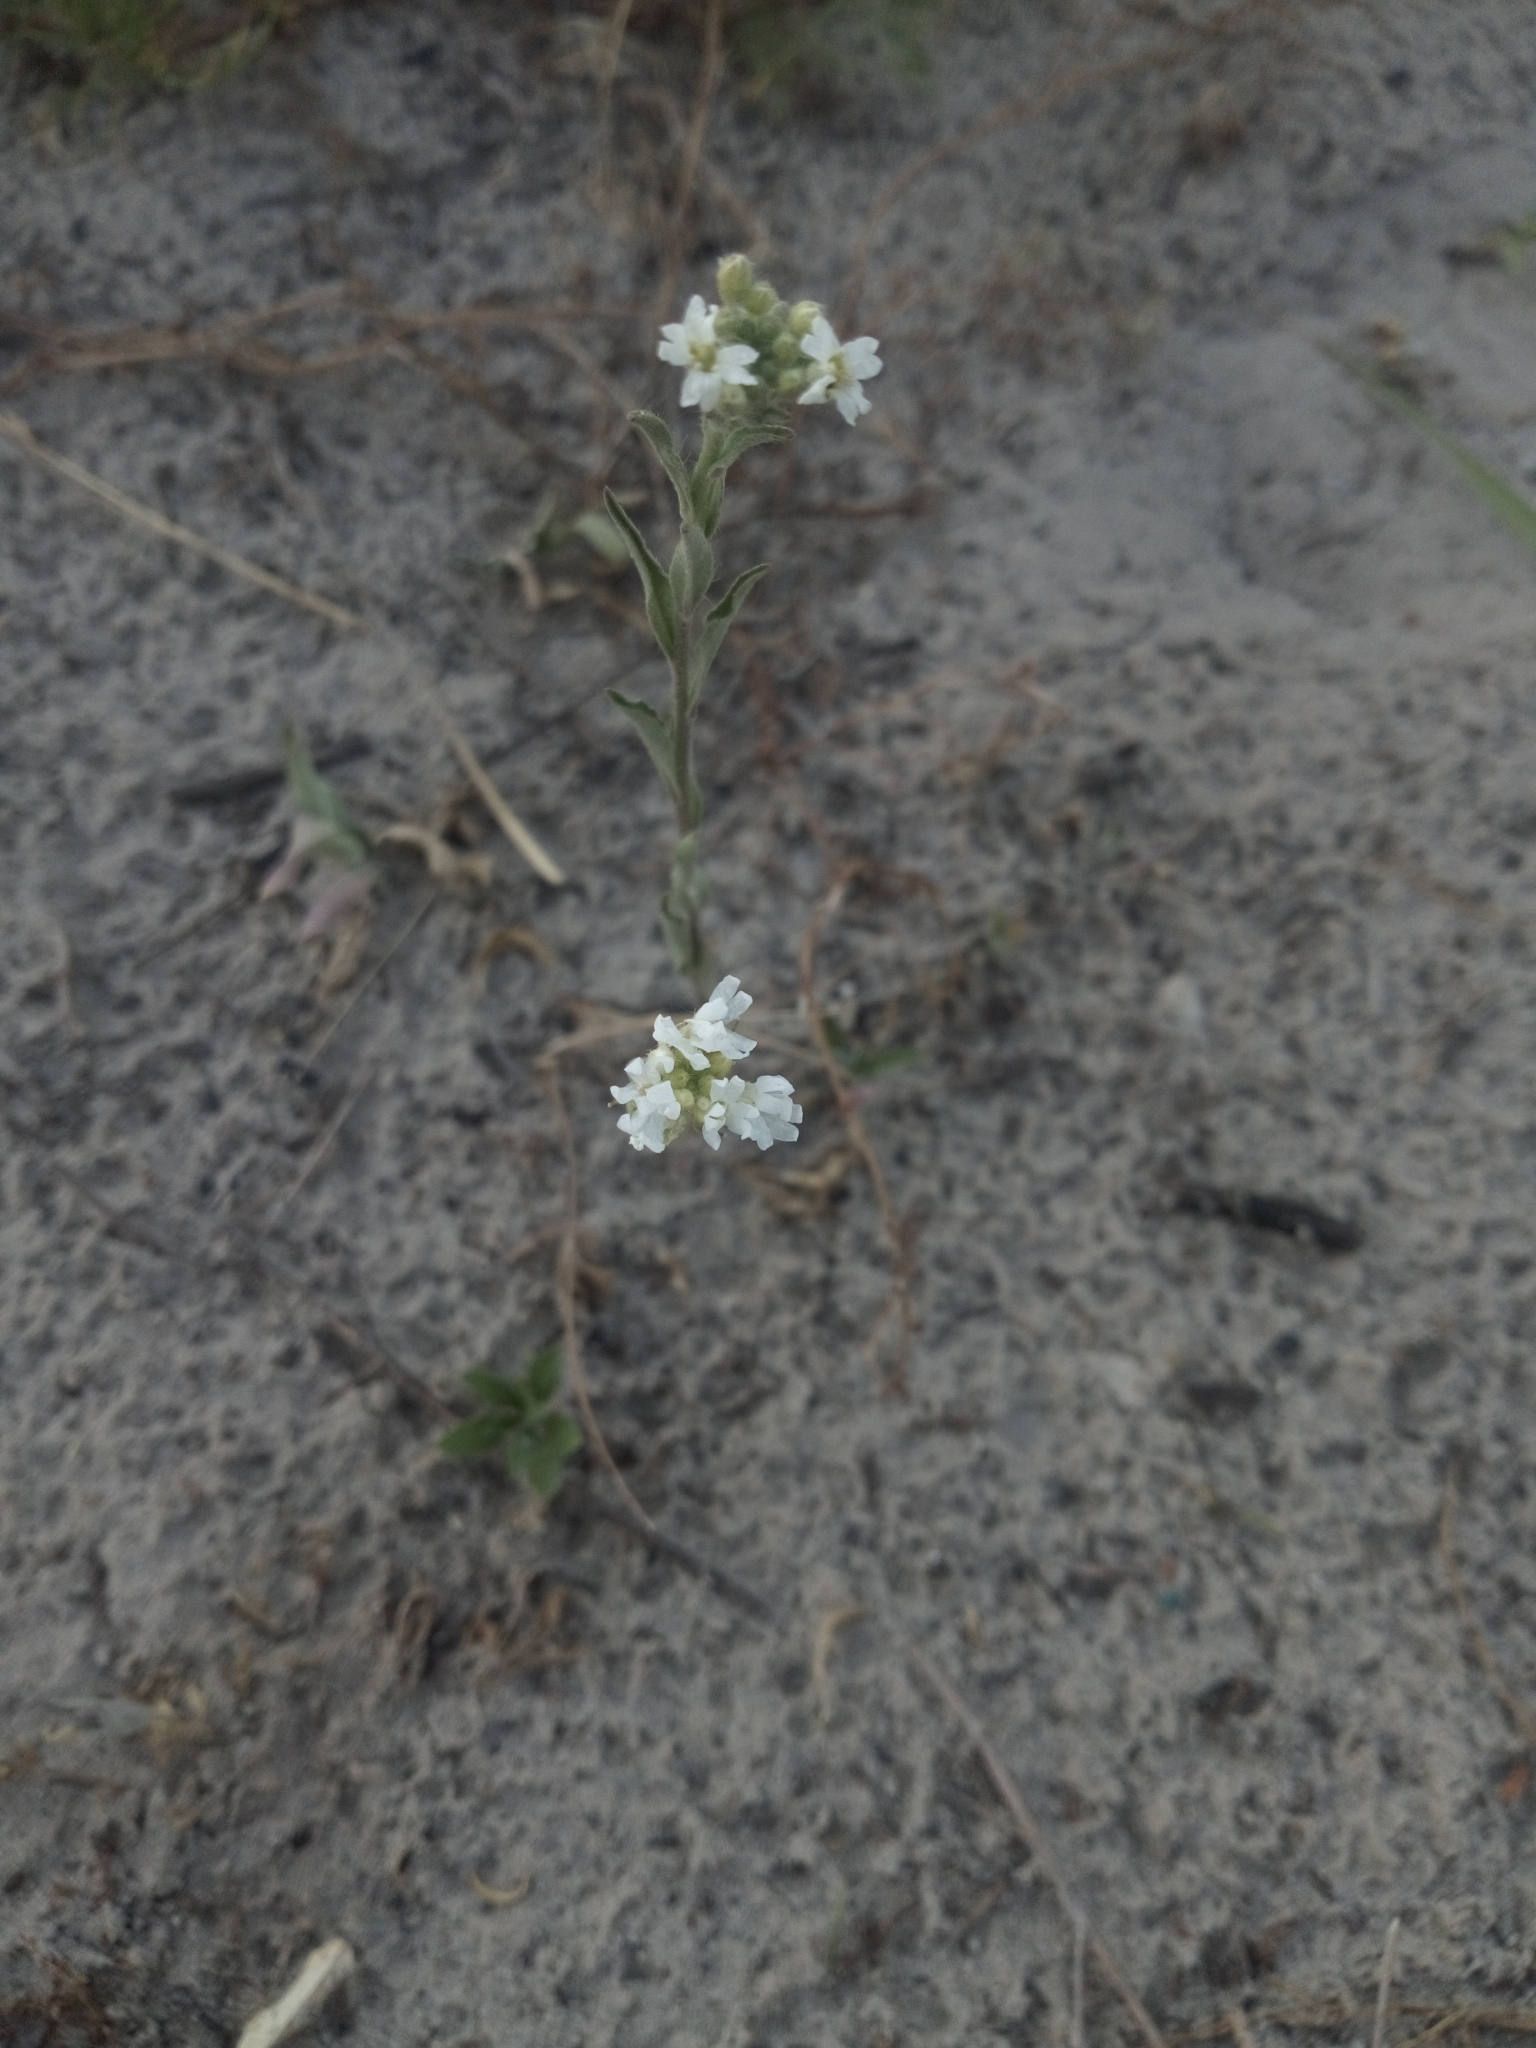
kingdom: Plantae
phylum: Tracheophyta
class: Magnoliopsida
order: Brassicales
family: Brassicaceae
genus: Berteroa
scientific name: Berteroa incana
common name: Hoary alison
